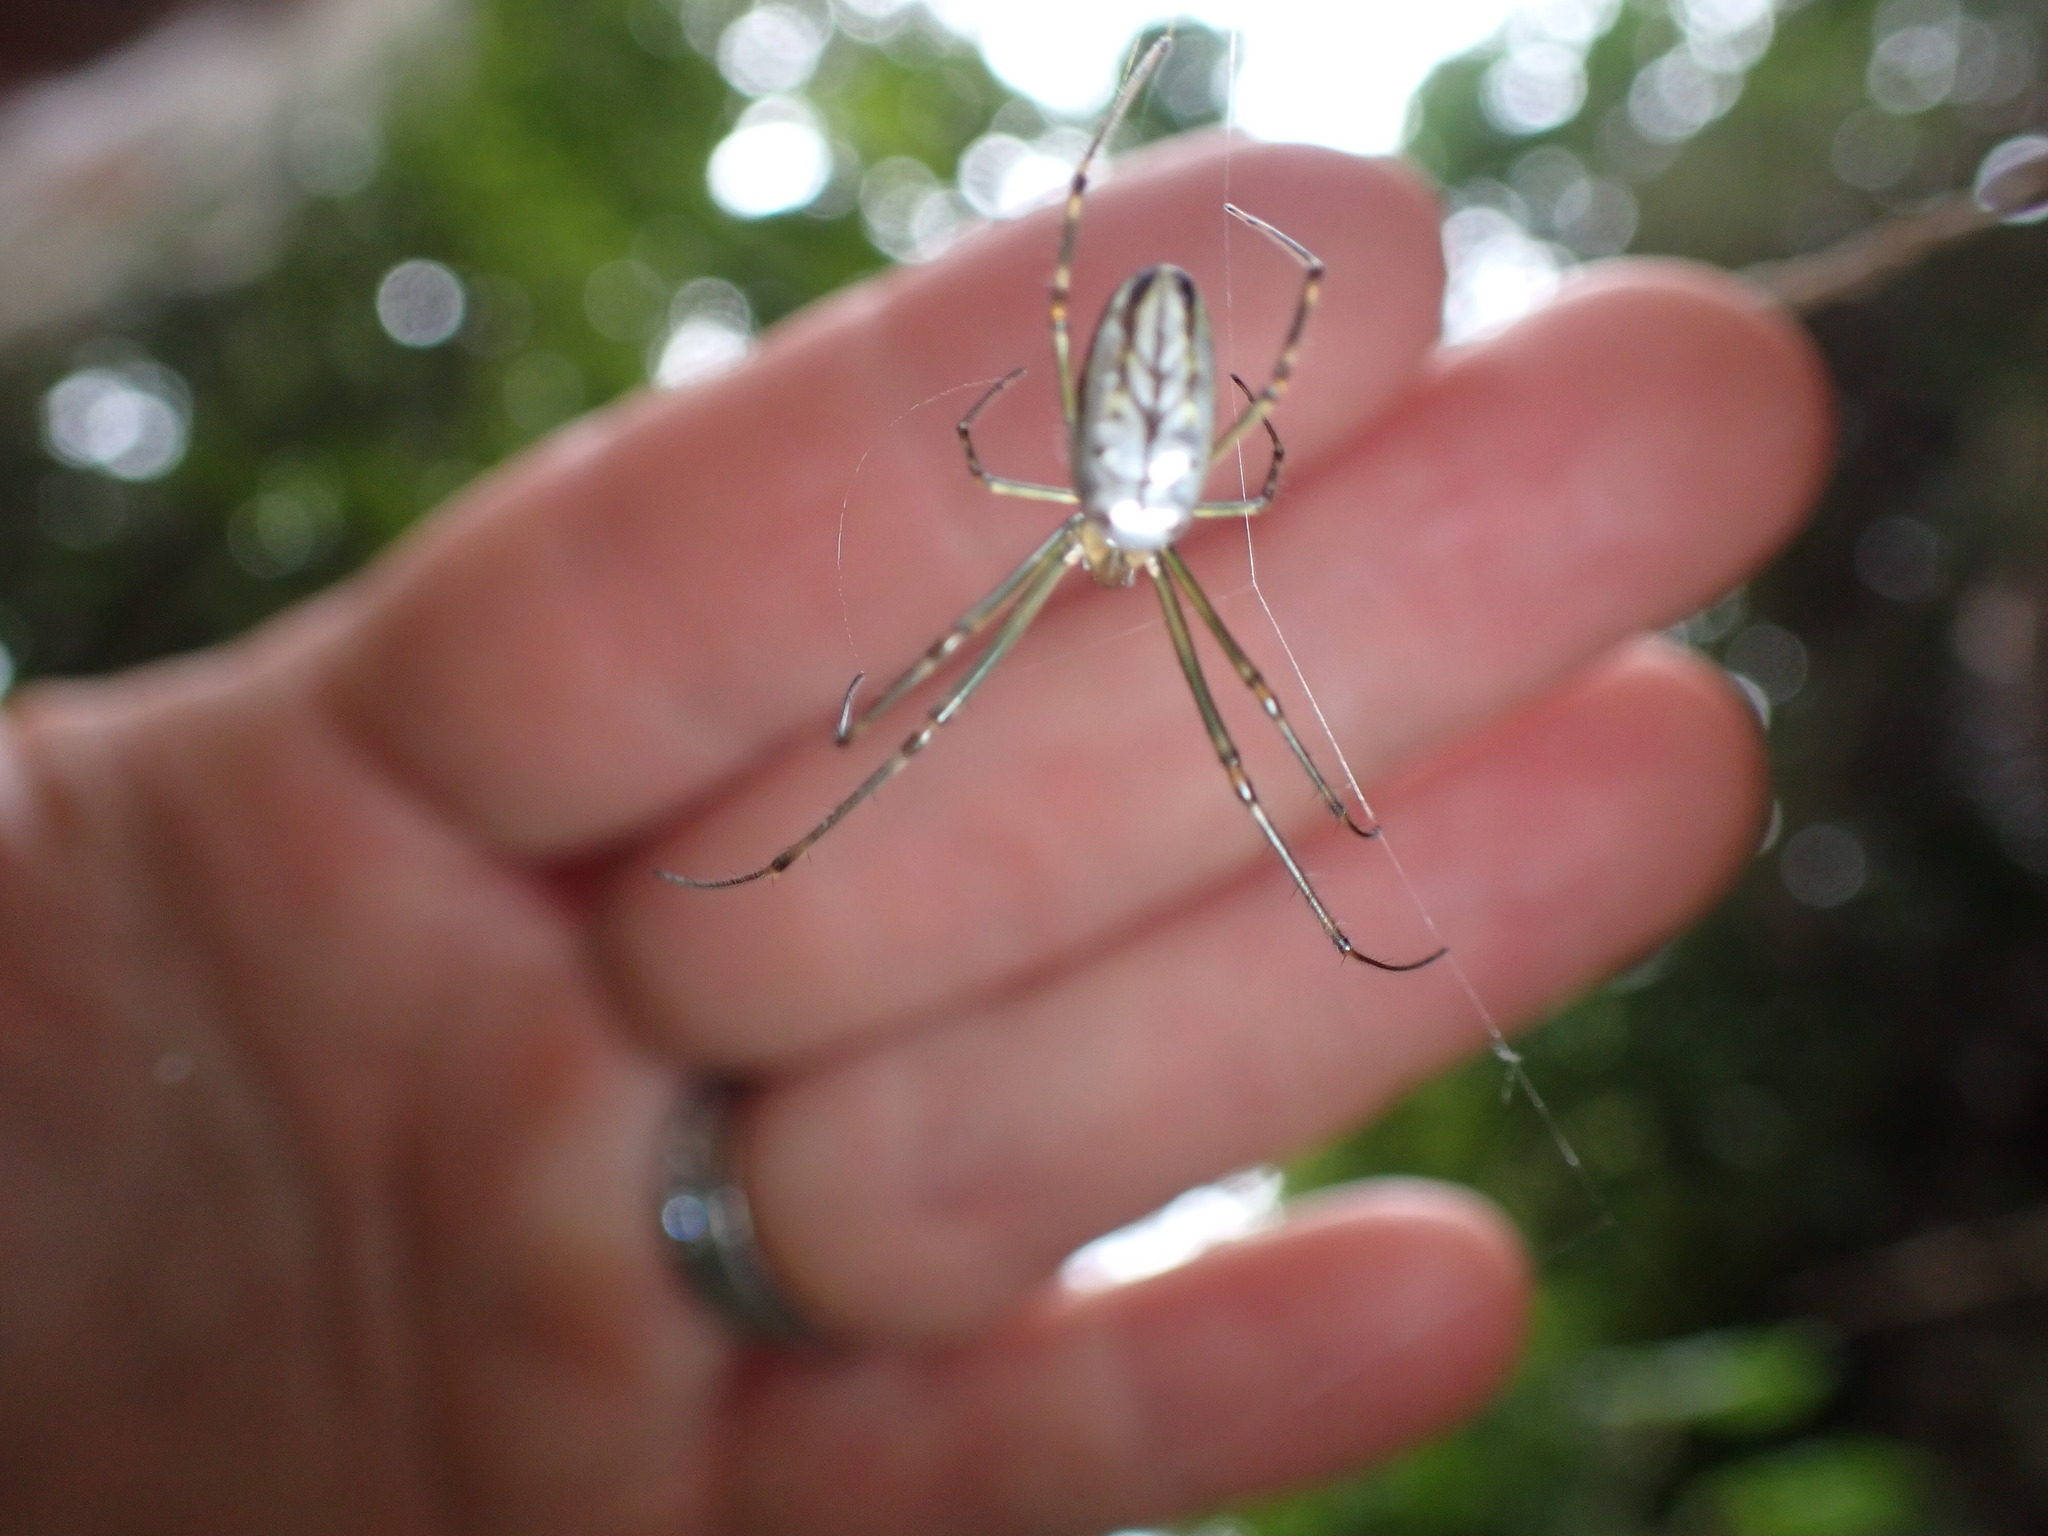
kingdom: Animalia
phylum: Arthropoda
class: Arachnida
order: Araneae
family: Tetragnathidae
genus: Leucauge
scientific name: Leucauge dromedaria
